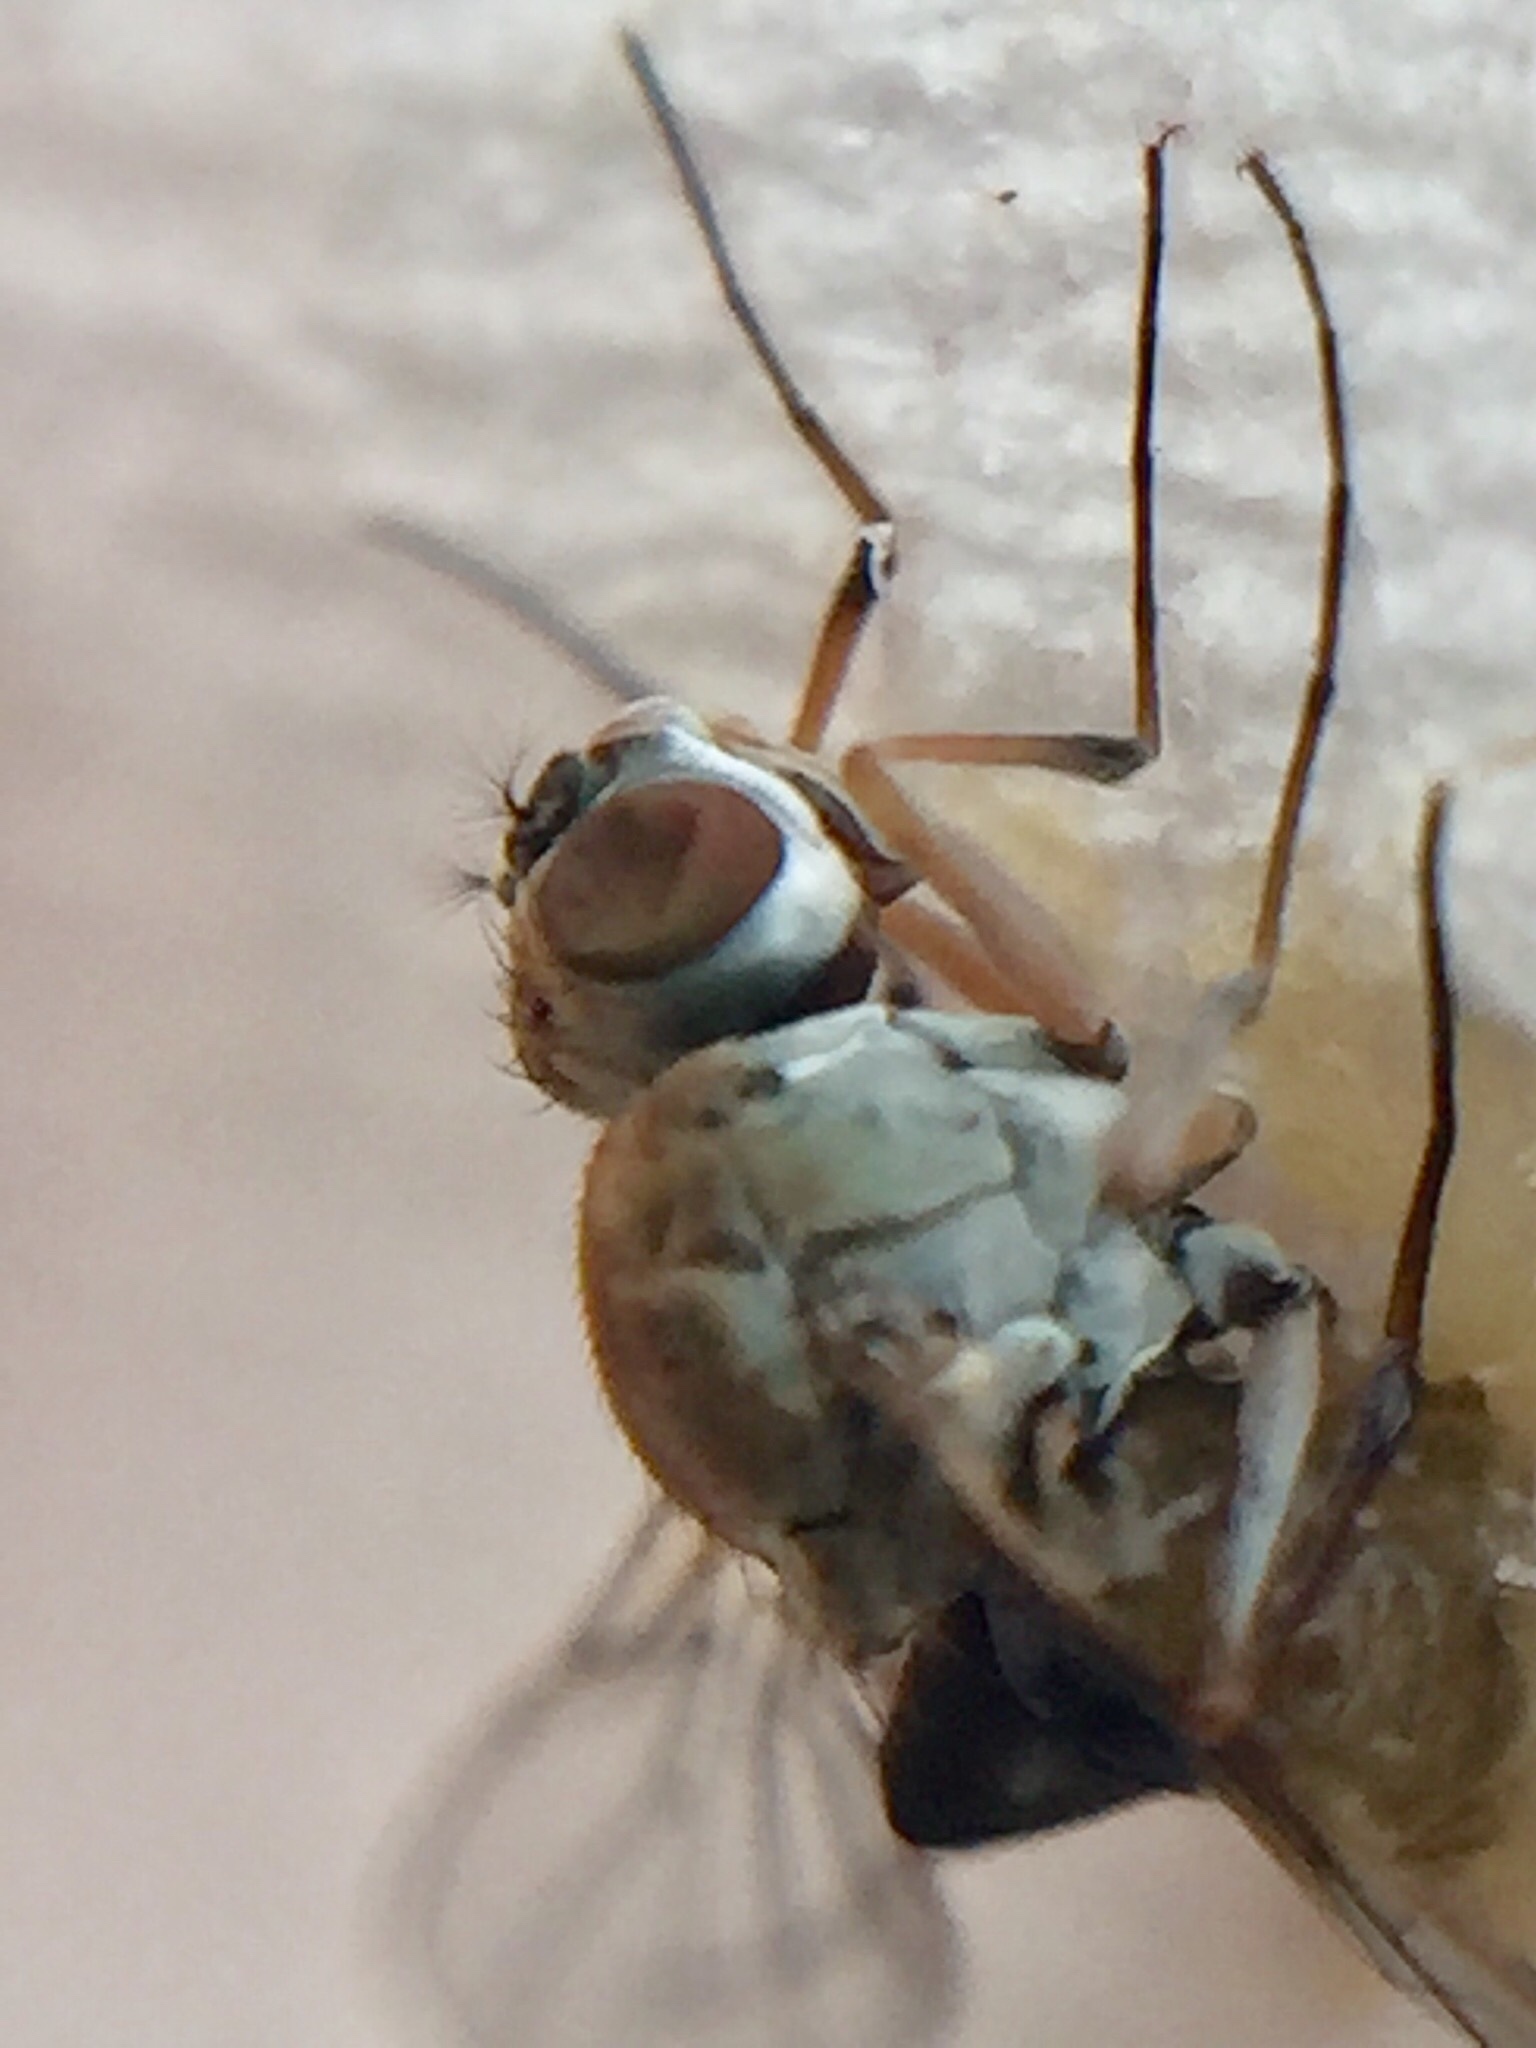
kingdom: Animalia
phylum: Arthropoda
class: Insecta
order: Diptera
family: Ephydridae
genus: Brachydeutera
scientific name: Brachydeutera sydneyensis
